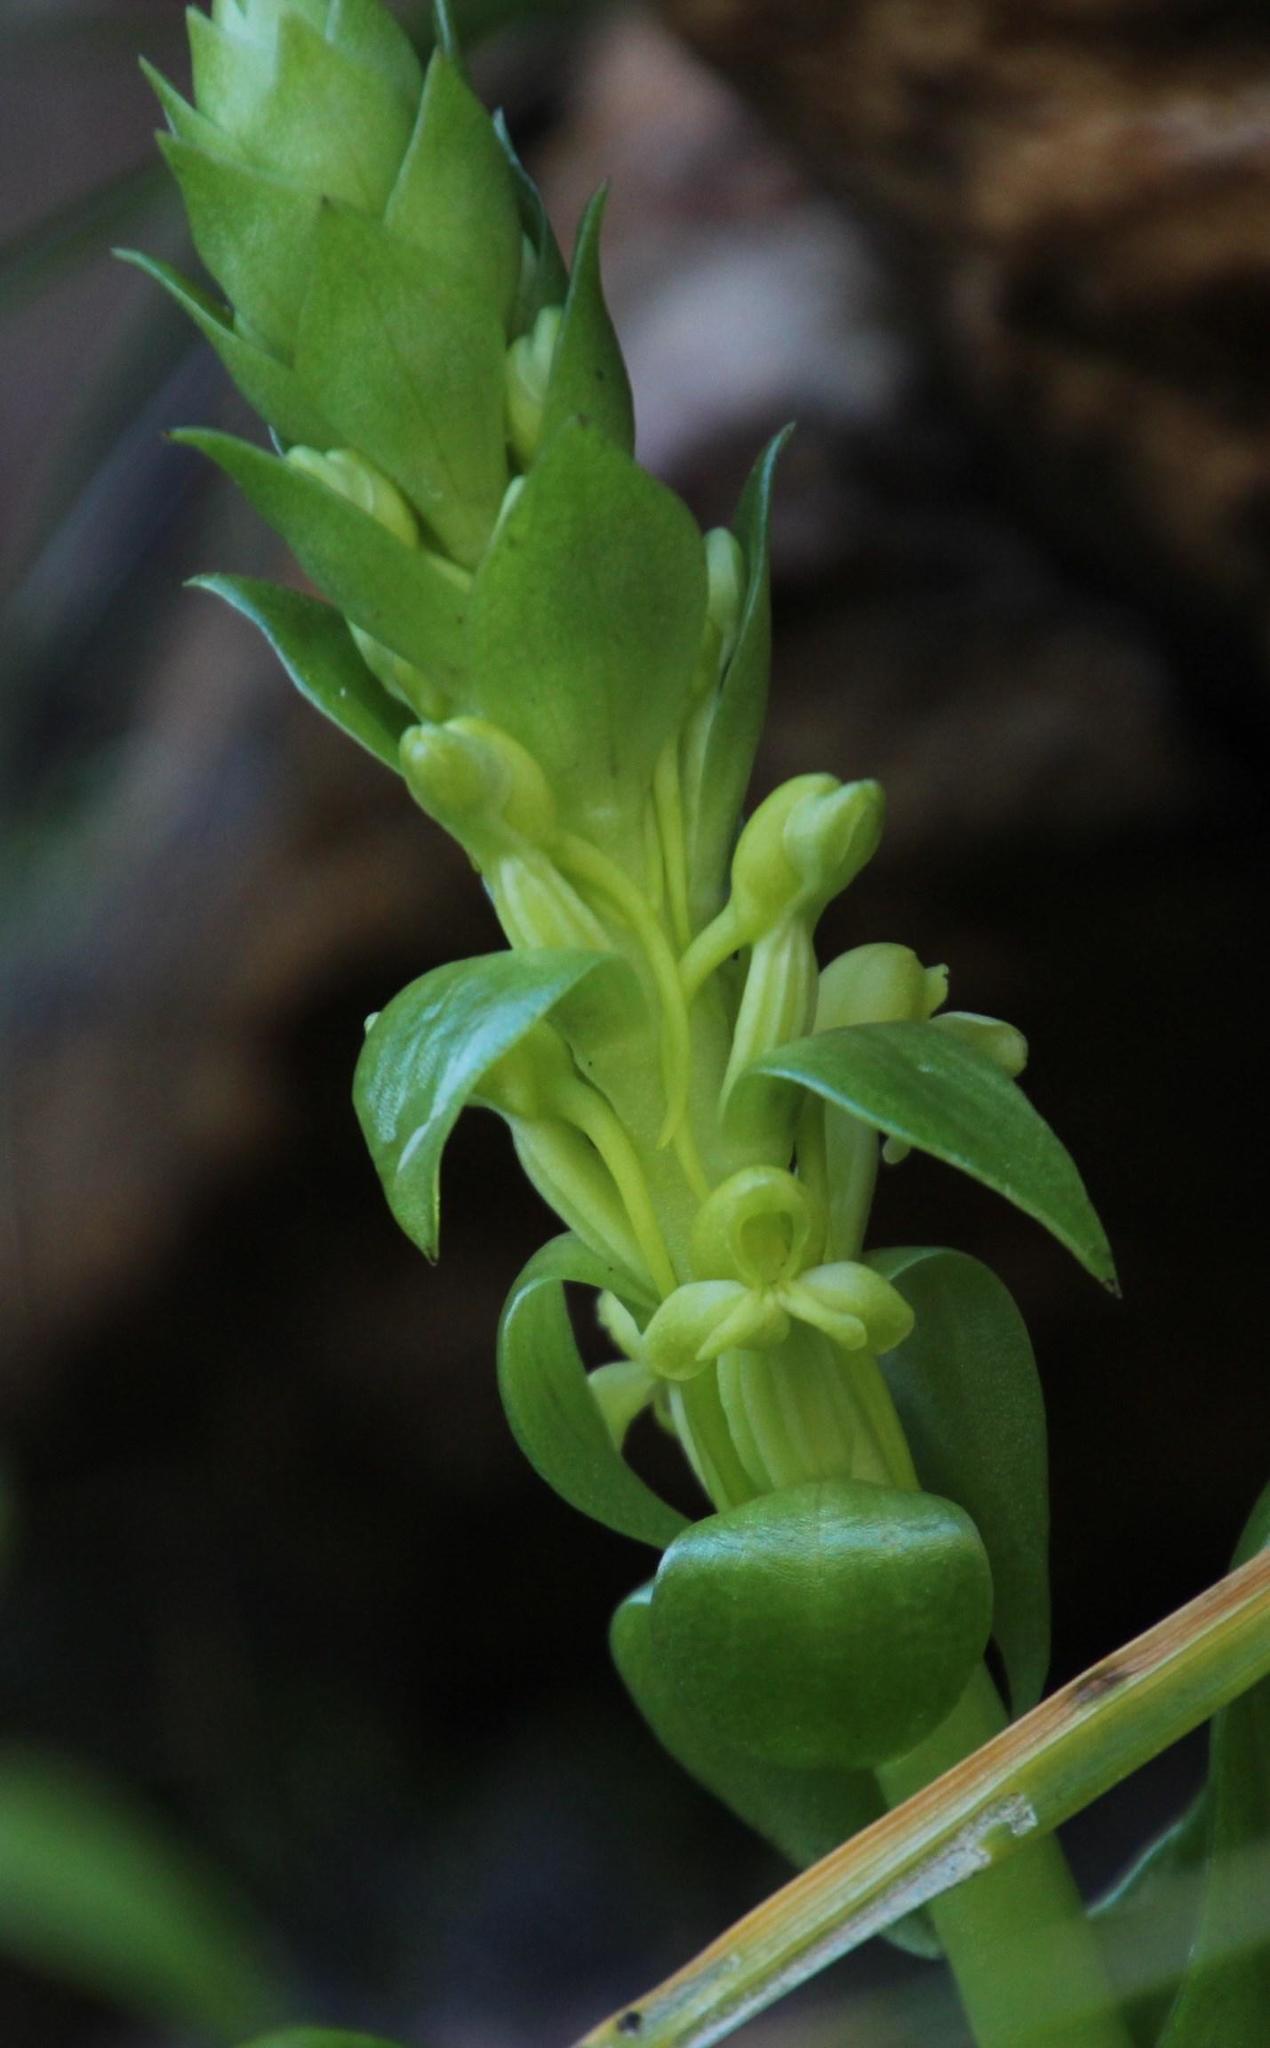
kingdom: Plantae
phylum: Tracheophyta
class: Liliopsida
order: Asparagales
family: Orchidaceae
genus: Satyrium
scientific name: Satyrium odorum
